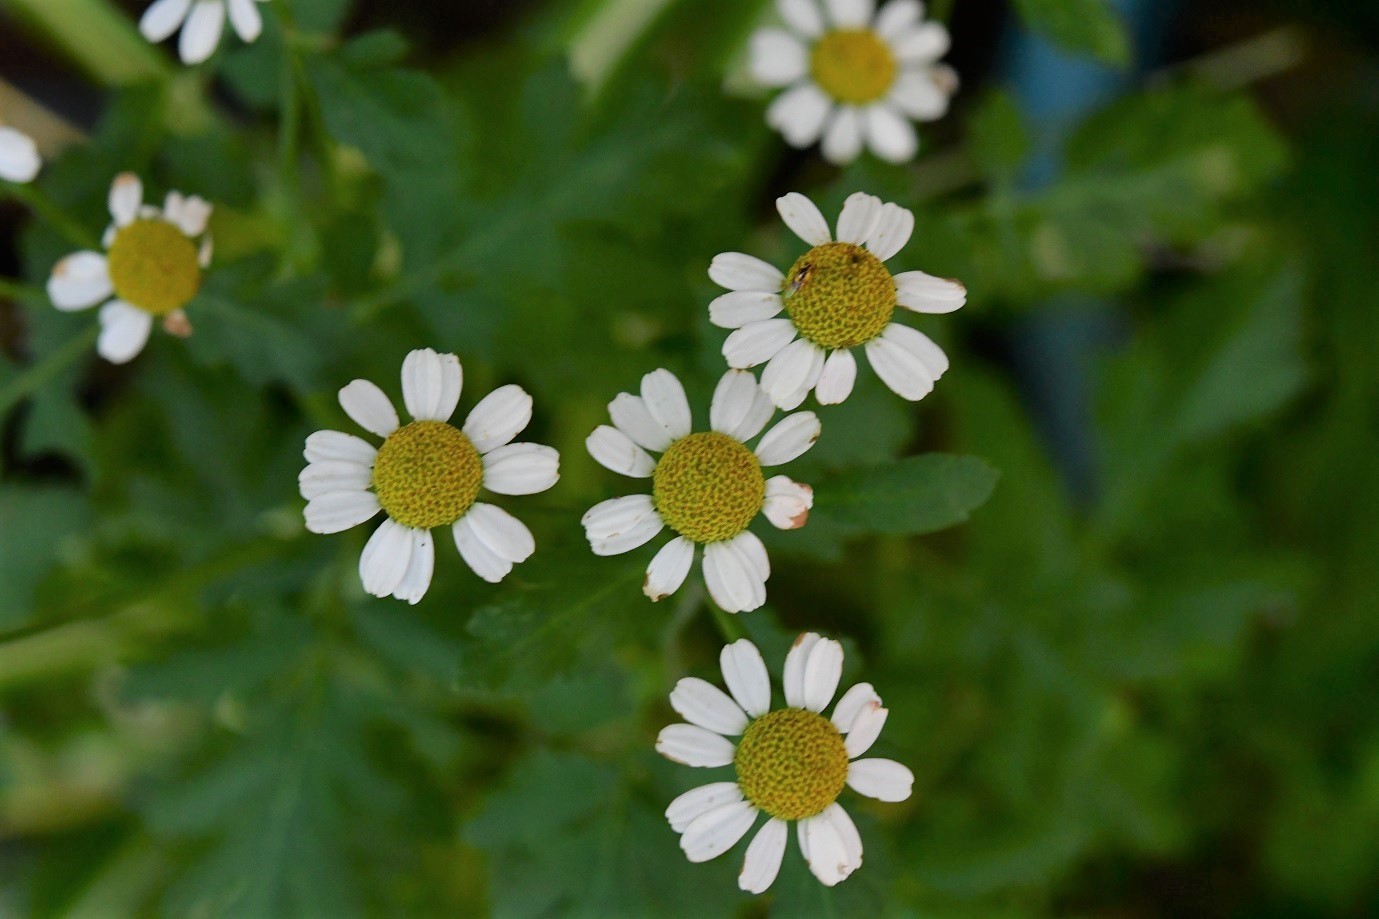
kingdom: Plantae
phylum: Tracheophyta
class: Magnoliopsida
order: Asterales
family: Asteraceae
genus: Tanacetum
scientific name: Tanacetum parthenium
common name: Feverfew
